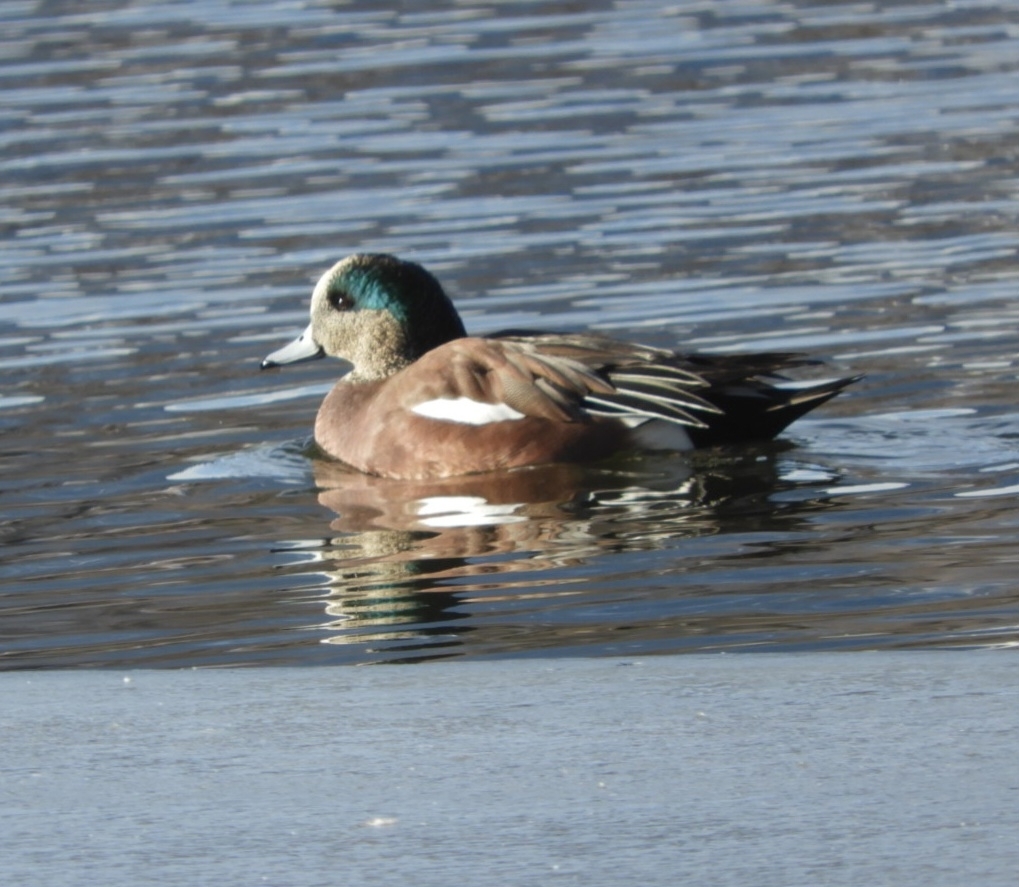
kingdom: Animalia
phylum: Chordata
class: Aves
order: Anseriformes
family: Anatidae
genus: Mareca
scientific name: Mareca americana
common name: American wigeon
